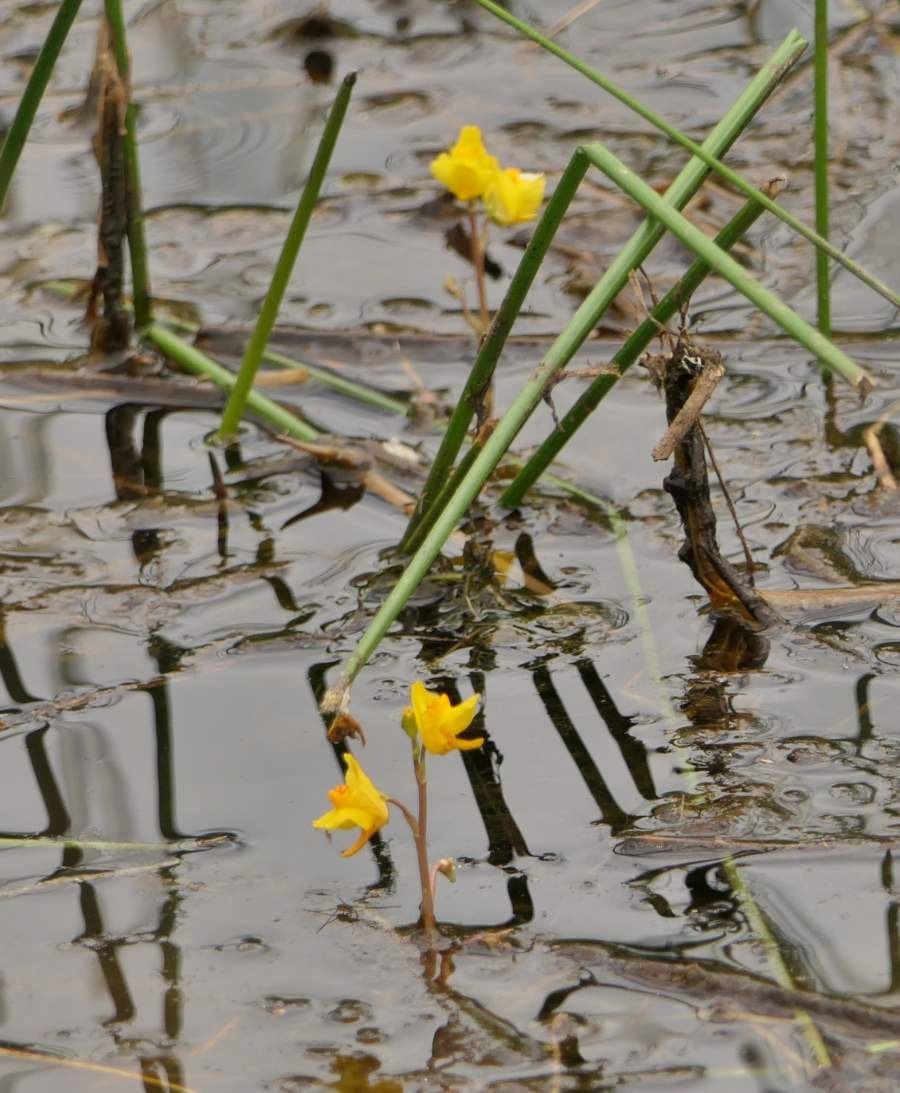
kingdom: Plantae
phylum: Tracheophyta
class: Magnoliopsida
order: Lamiales
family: Lentibulariaceae
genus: Utricularia
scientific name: Utricularia macrorhiza
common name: Common bladderwort
